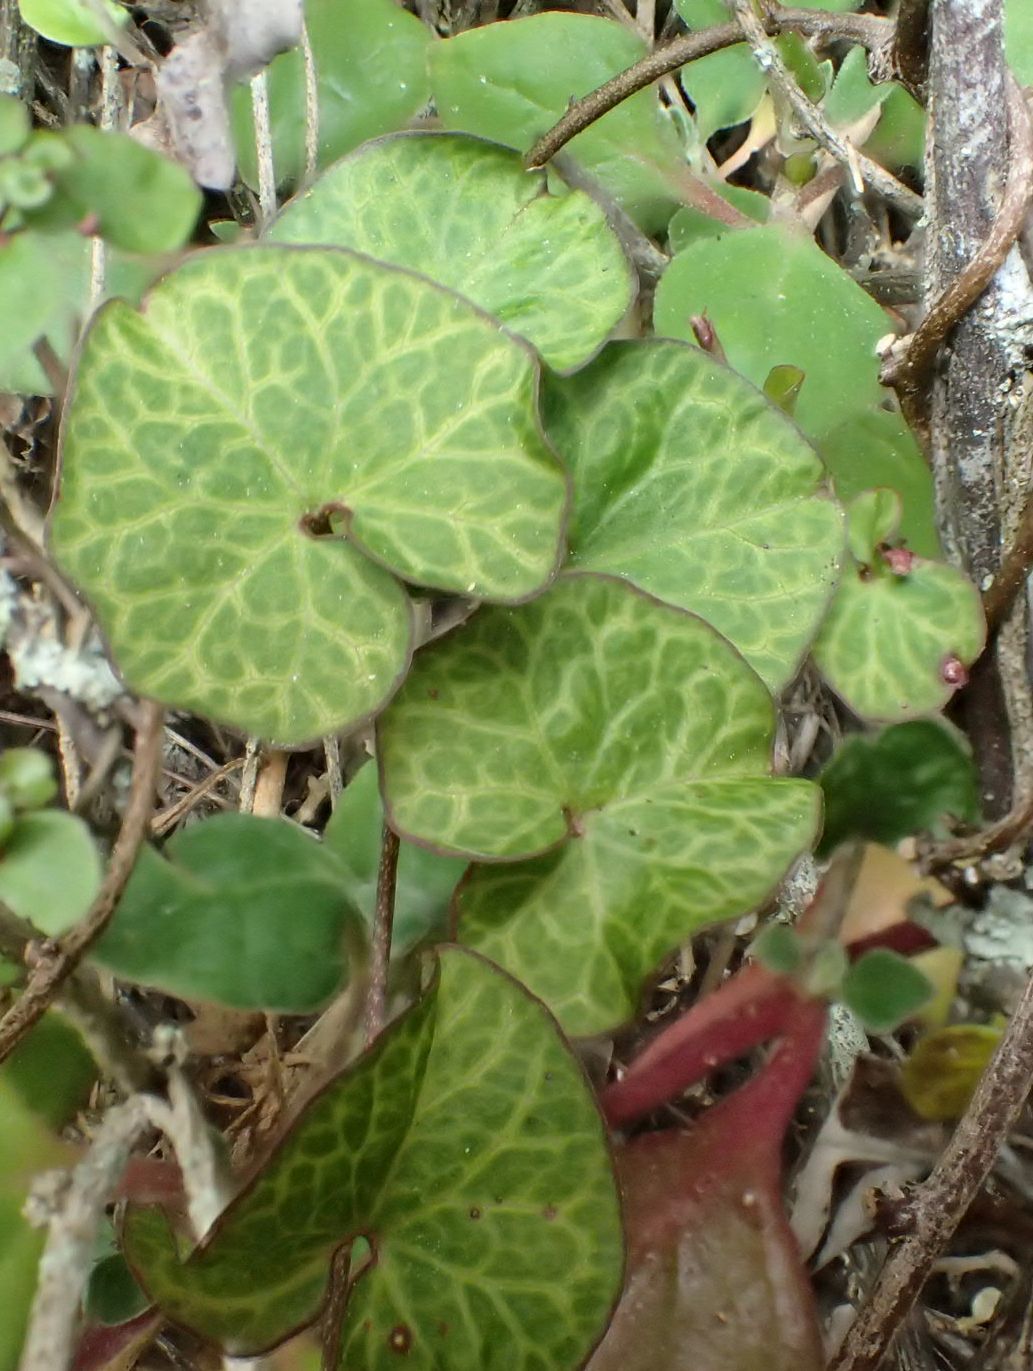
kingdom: Plantae
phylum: Tracheophyta
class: Magnoliopsida
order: Solanales
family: Convolvulaceae
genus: Calystegia
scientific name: Calystegia tuguriorum
